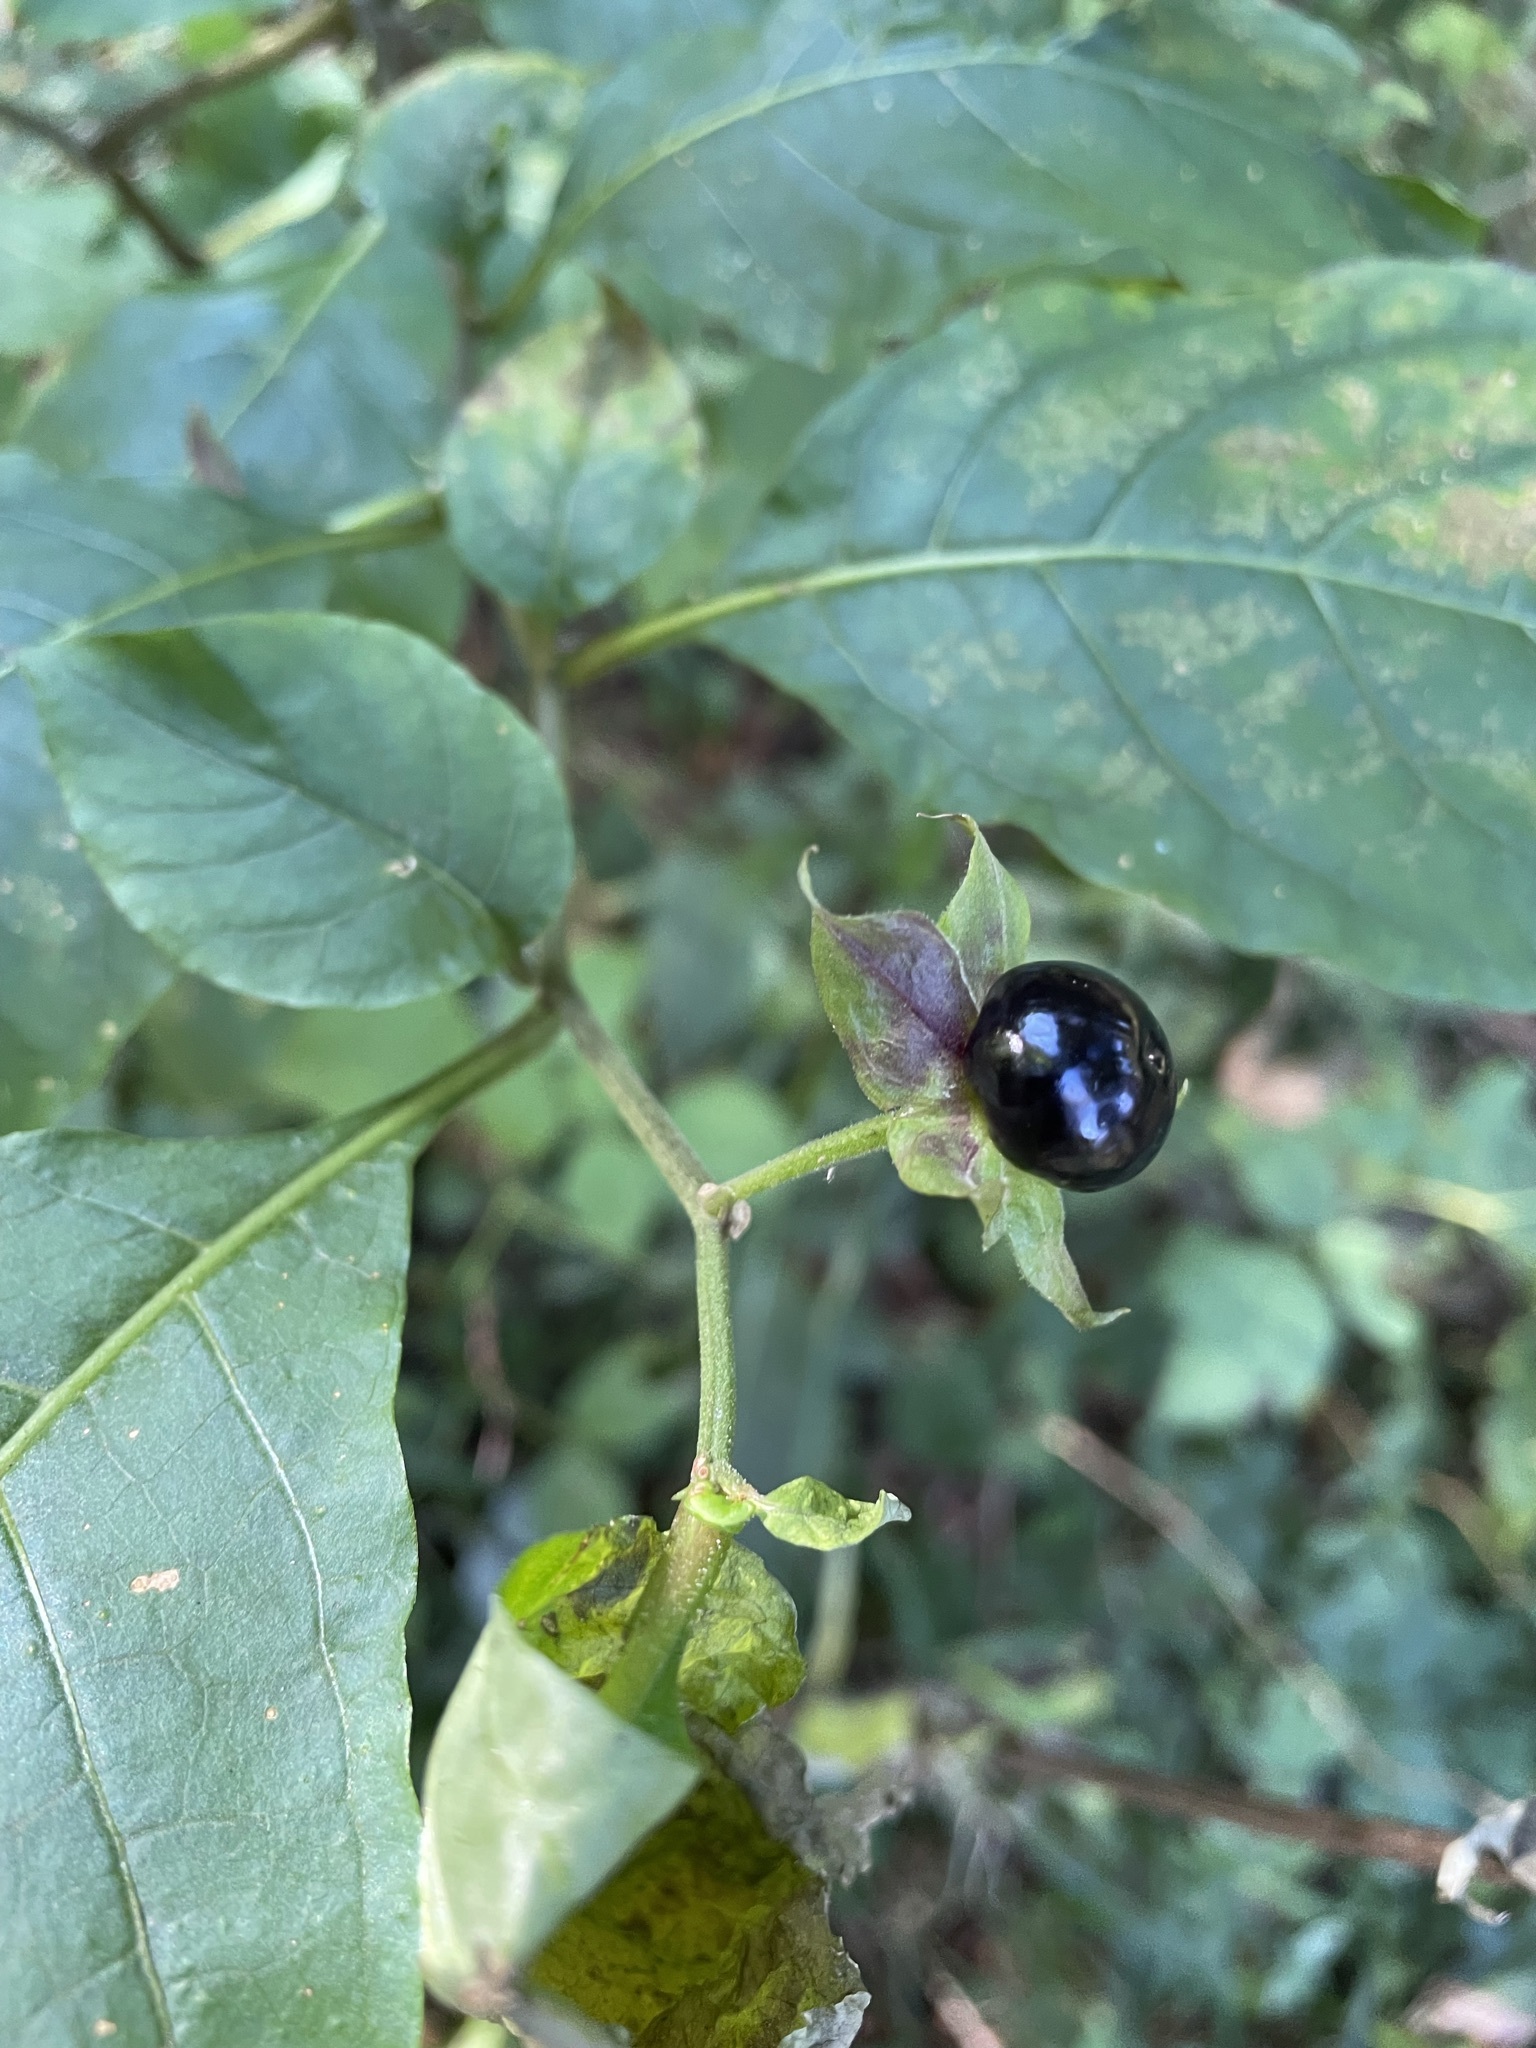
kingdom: Plantae
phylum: Tracheophyta
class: Magnoliopsida
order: Solanales
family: Solanaceae
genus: Atropa
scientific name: Atropa belladonna
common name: Deadly nightshade
